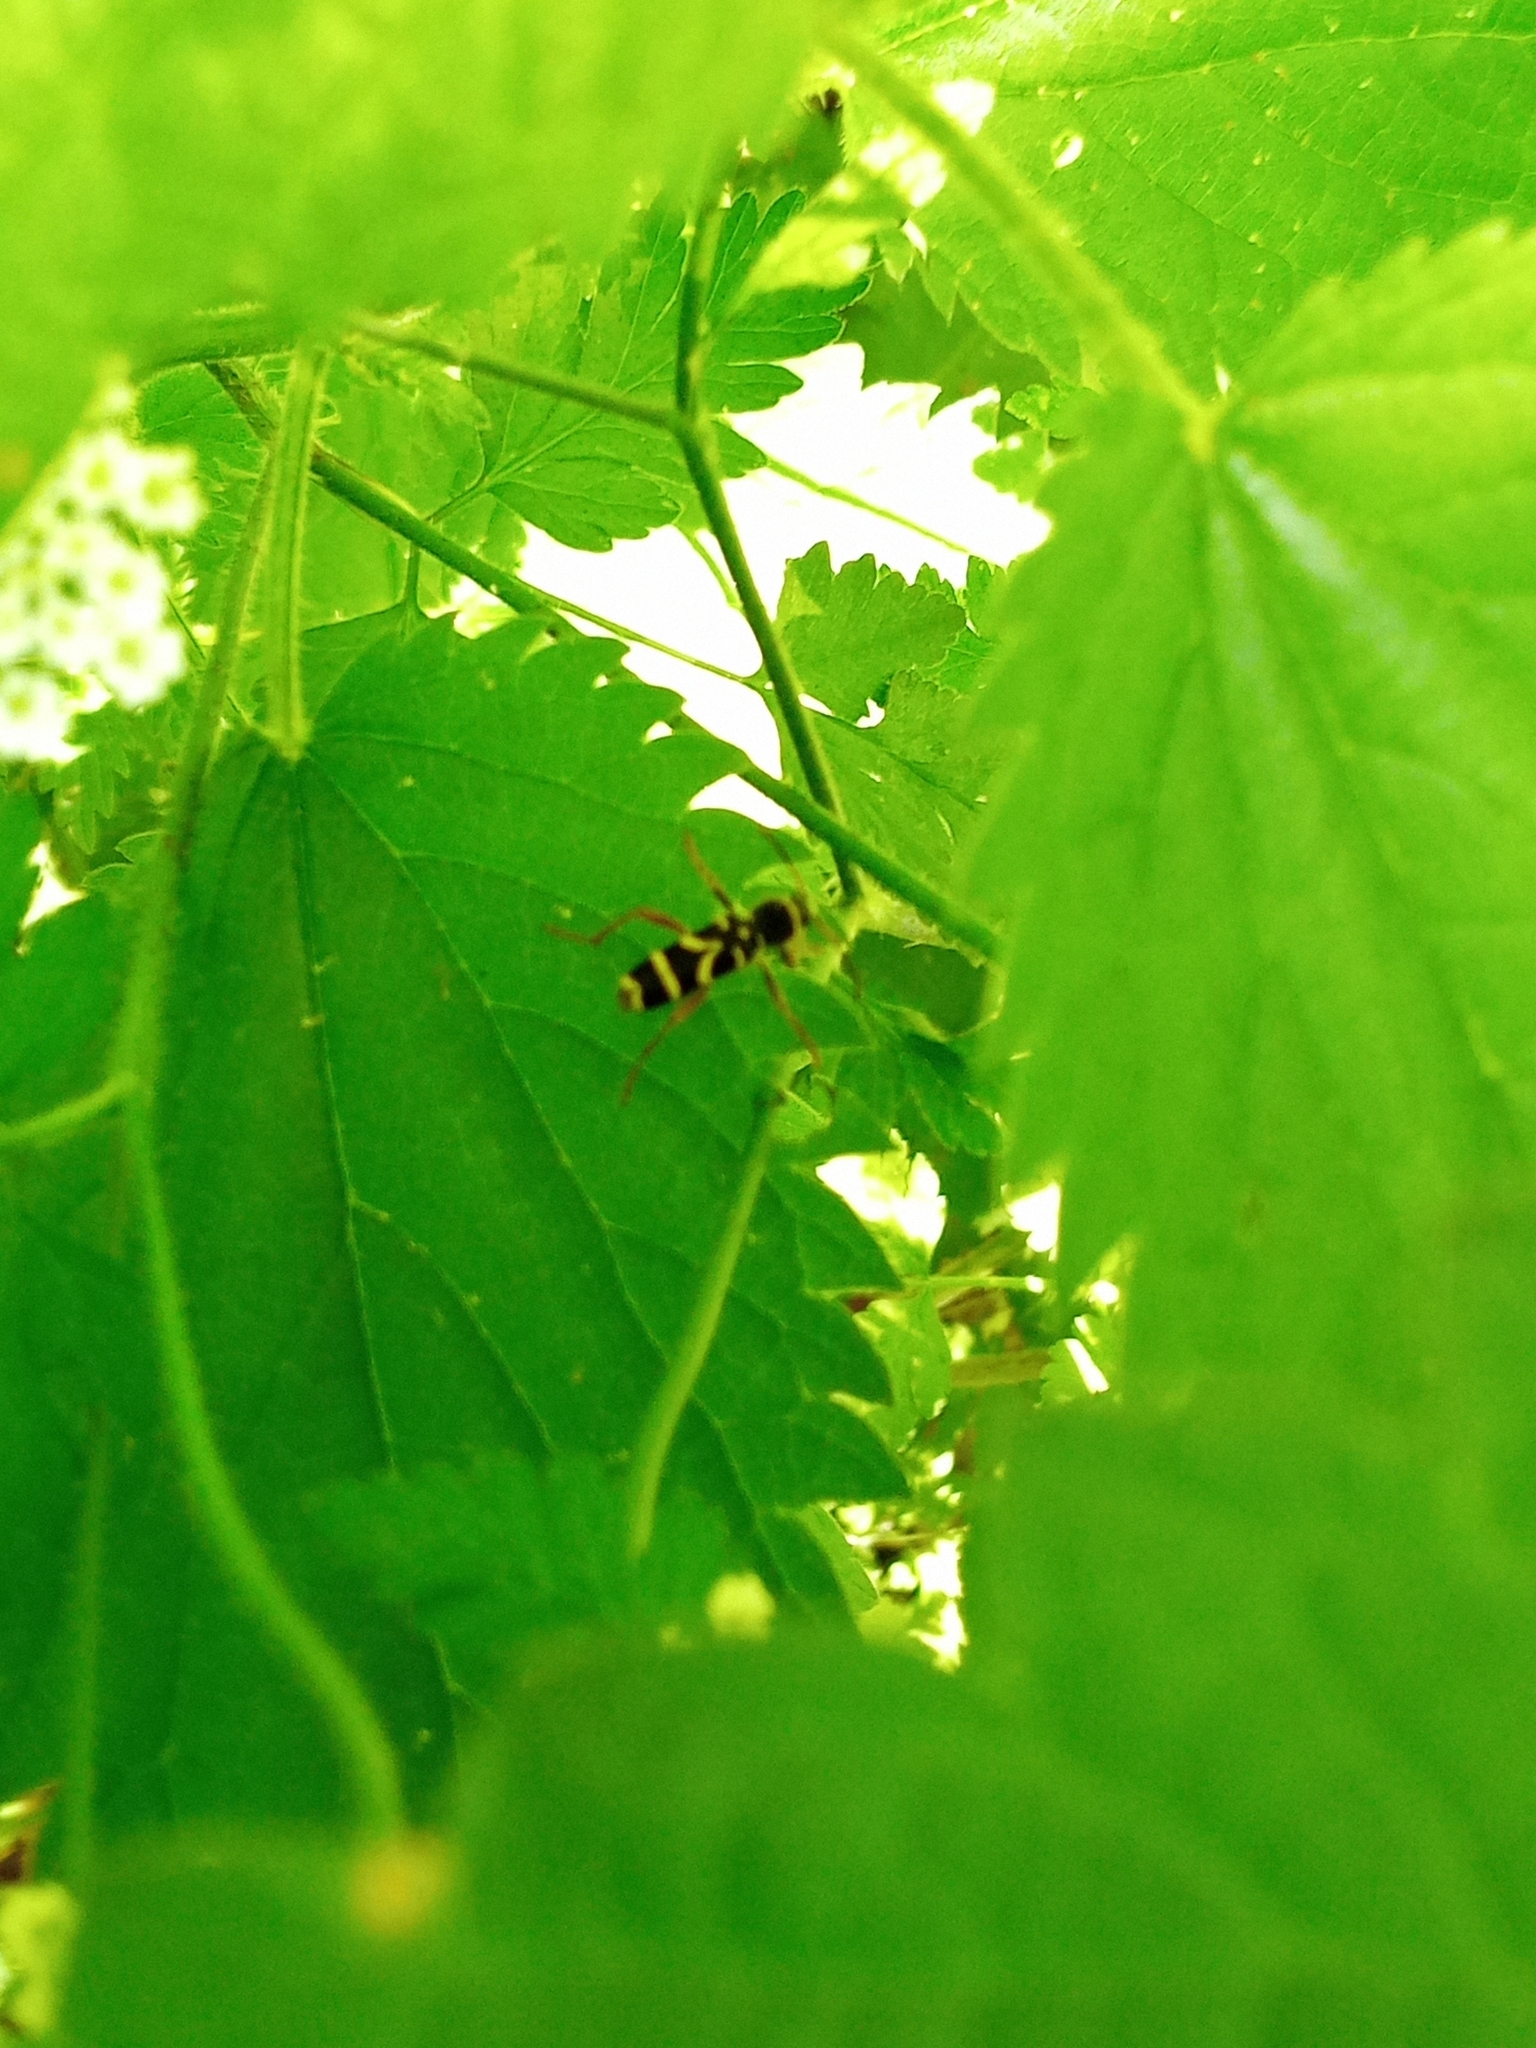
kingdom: Animalia
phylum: Arthropoda
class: Insecta
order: Coleoptera
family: Cerambycidae
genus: Clytus
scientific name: Clytus arietis
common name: Wasp beetle
